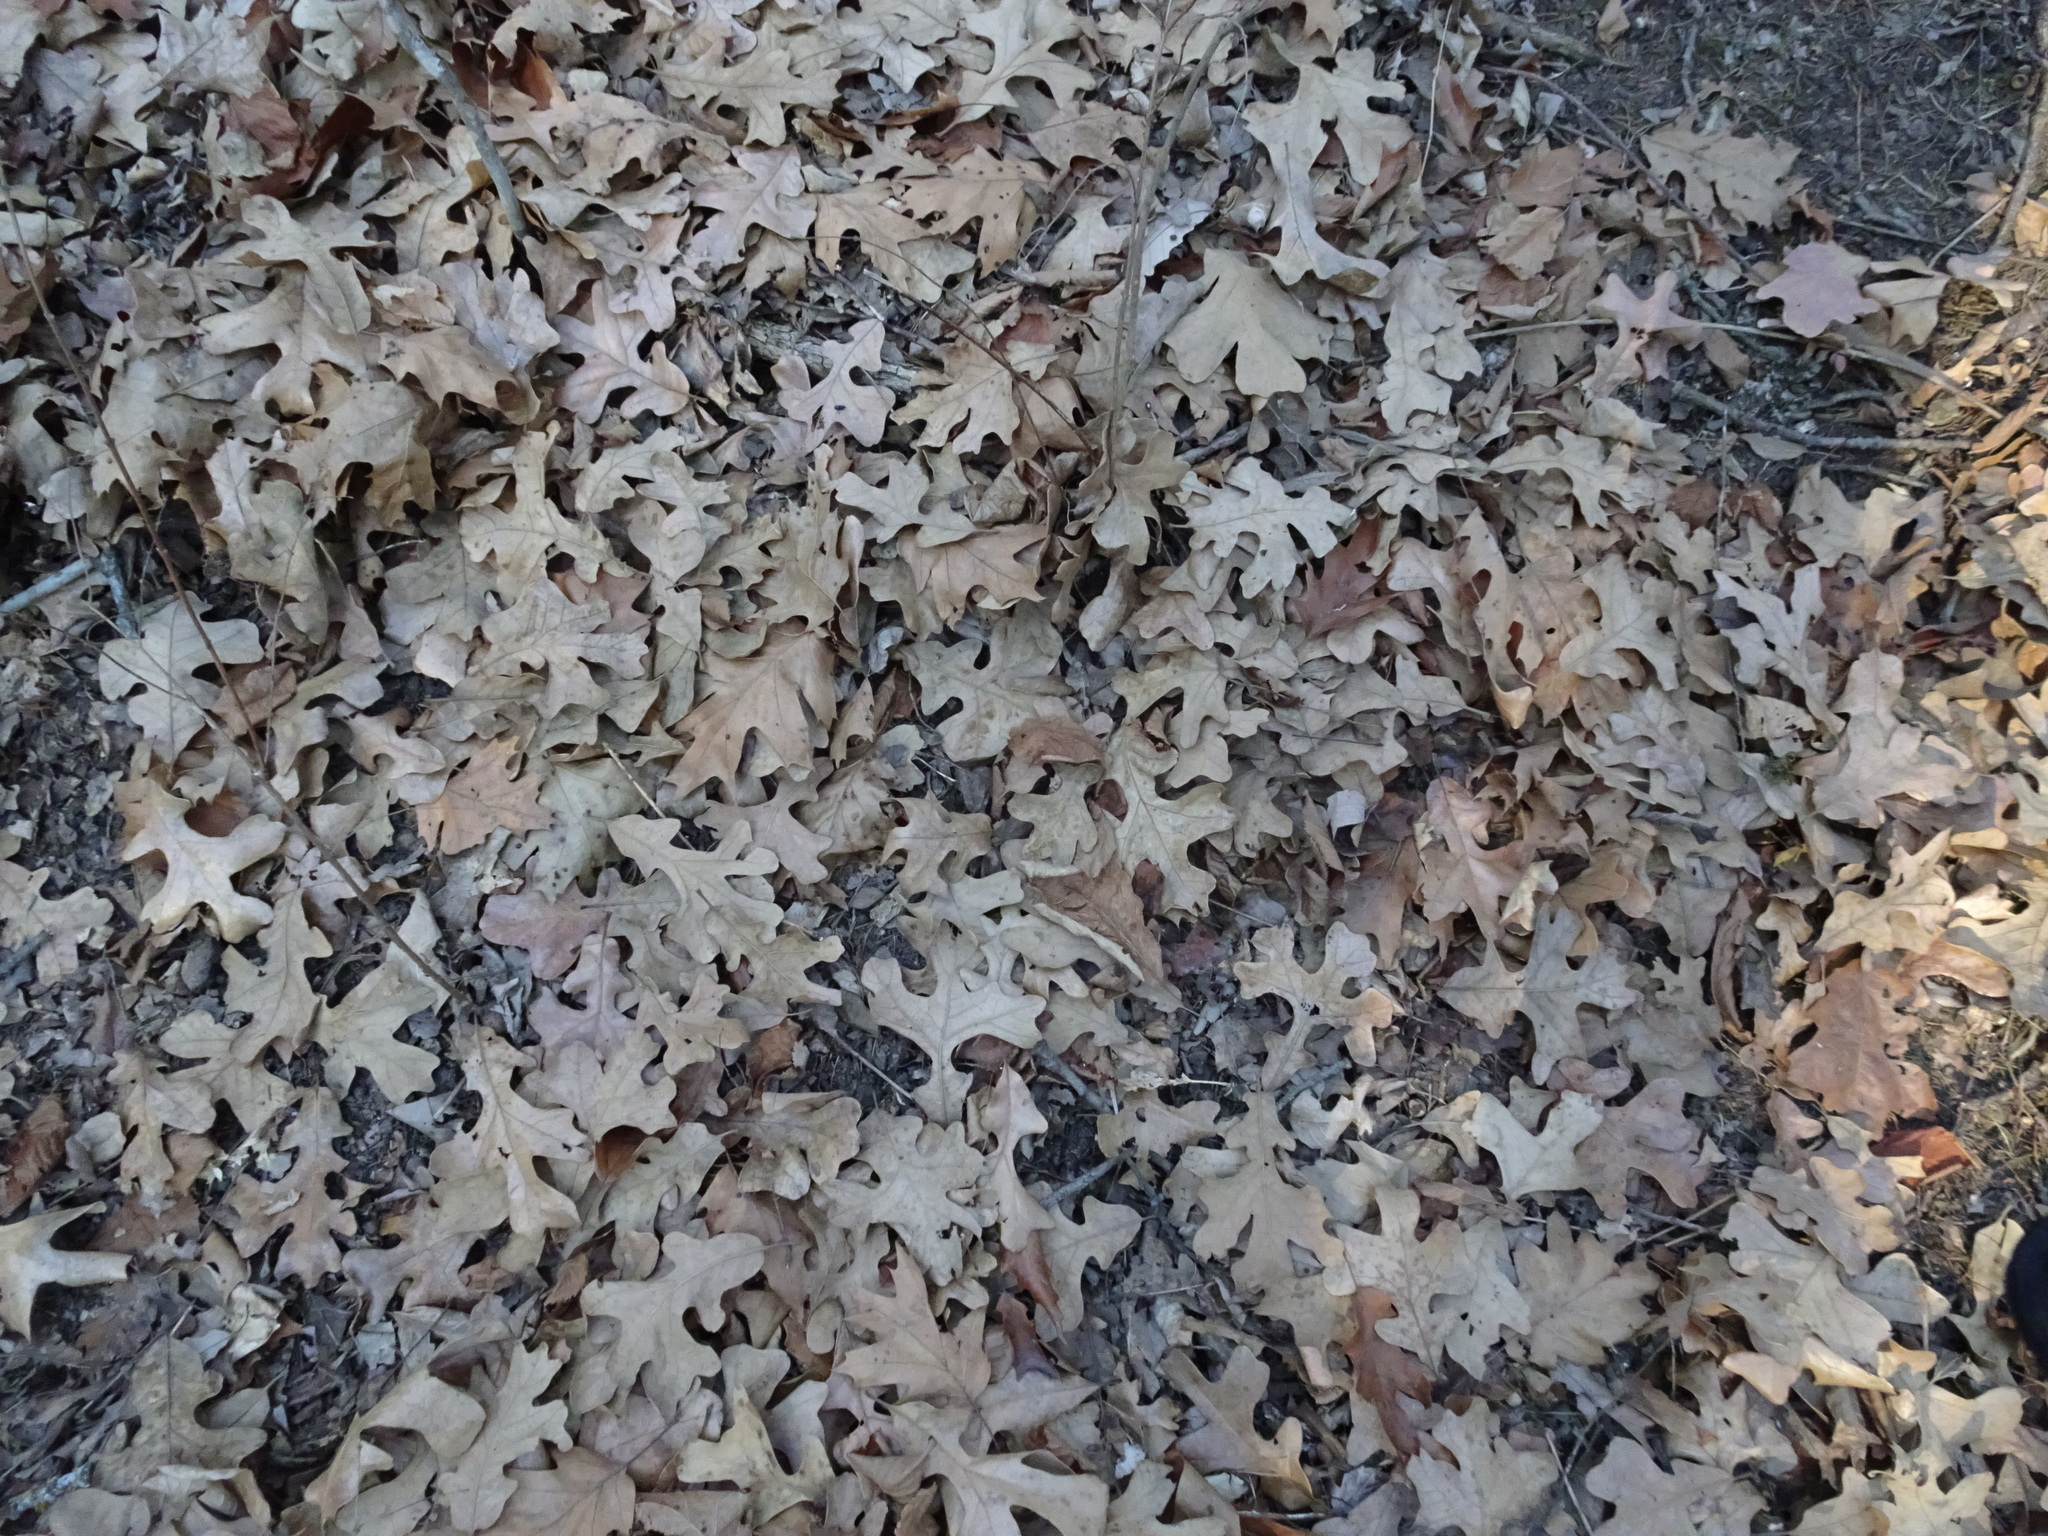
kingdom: Plantae
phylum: Tracheophyta
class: Magnoliopsida
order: Fagales
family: Fagaceae
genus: Quercus
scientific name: Quercus stellata
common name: Post oak
